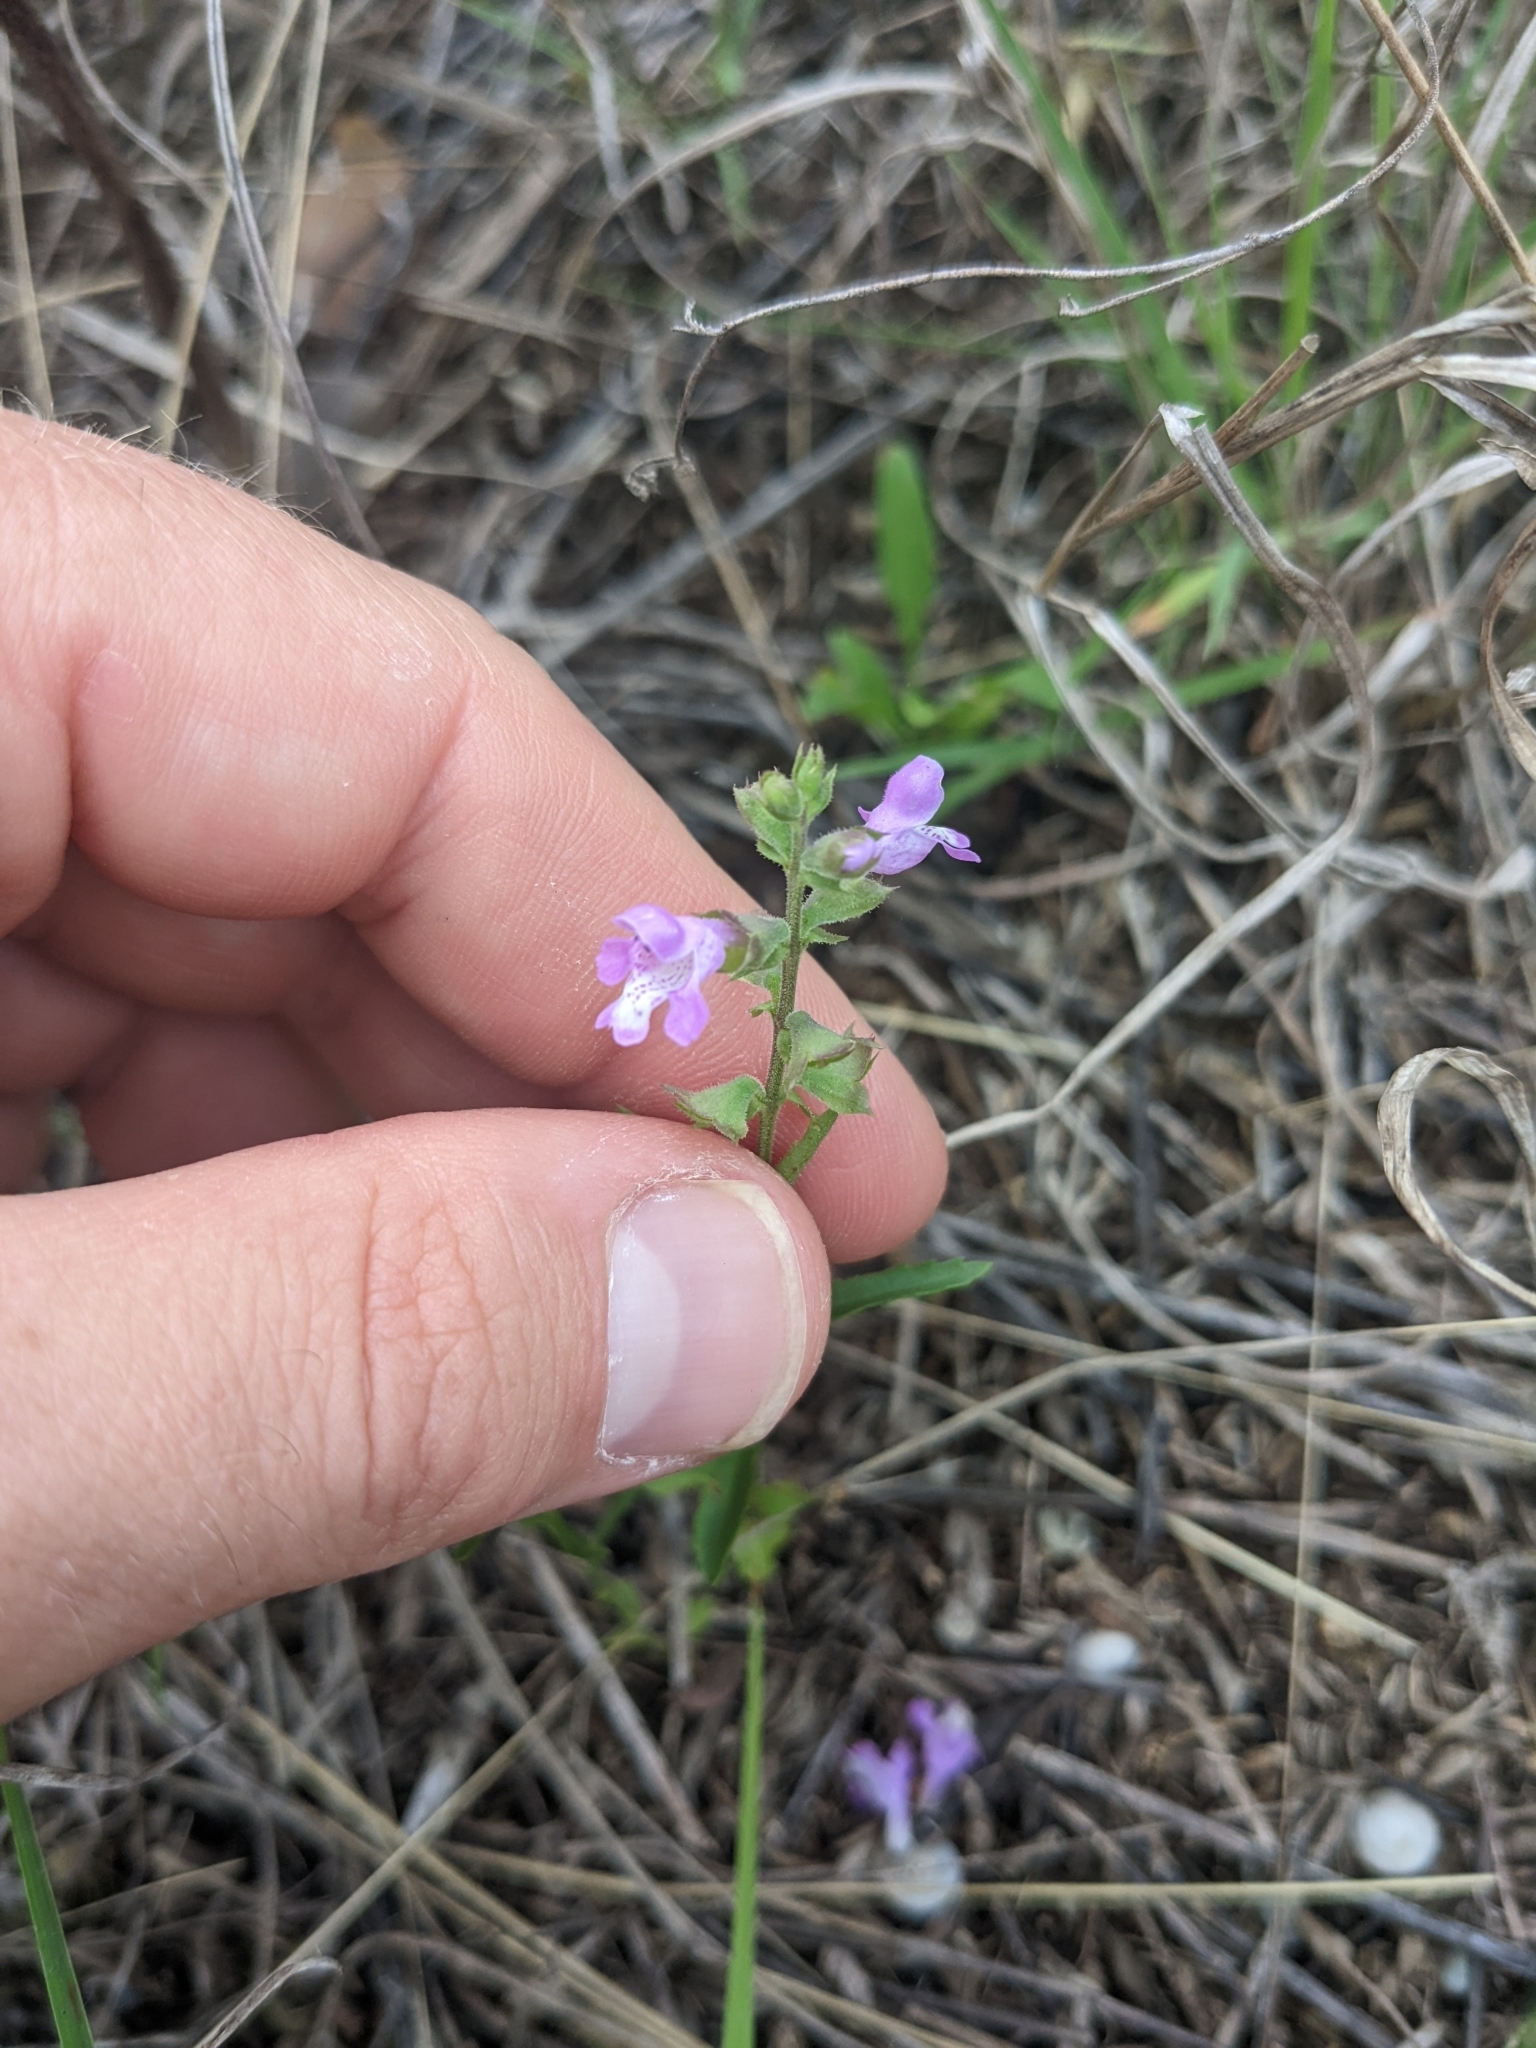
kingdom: Plantae
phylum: Tracheophyta
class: Magnoliopsida
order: Lamiales
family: Lamiaceae
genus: Warnockia
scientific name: Warnockia scutellarioides
